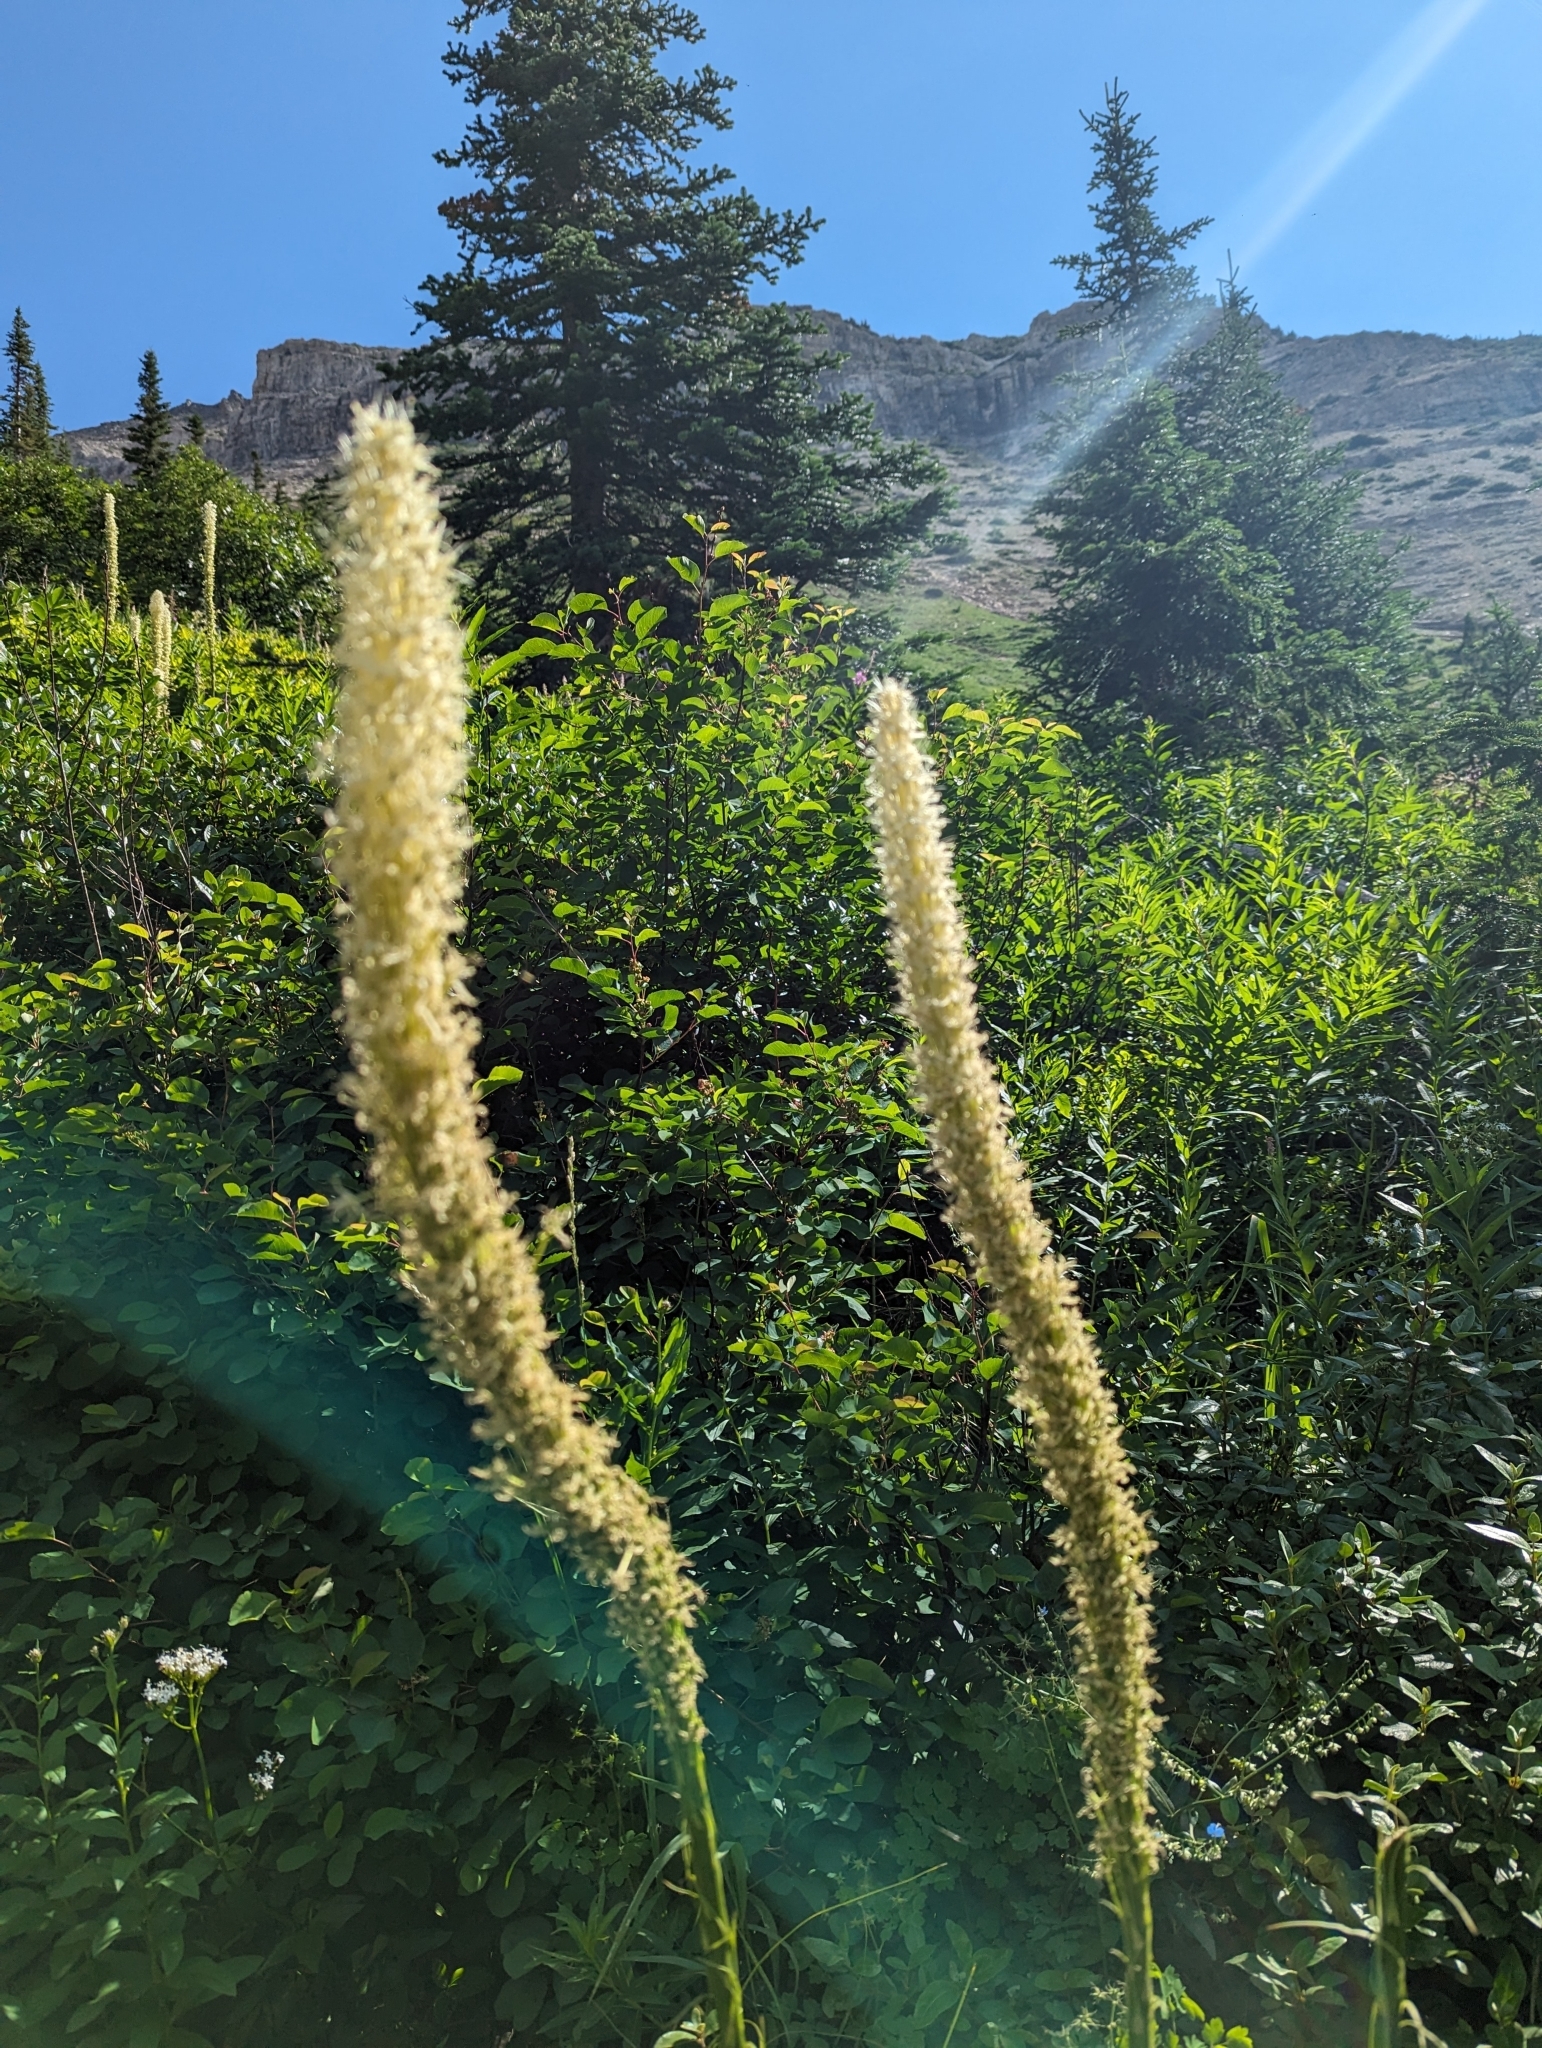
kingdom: Plantae
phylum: Tracheophyta
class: Liliopsida
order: Liliales
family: Melanthiaceae
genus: Xerophyllum
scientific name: Xerophyllum tenax
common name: Bear-grass
